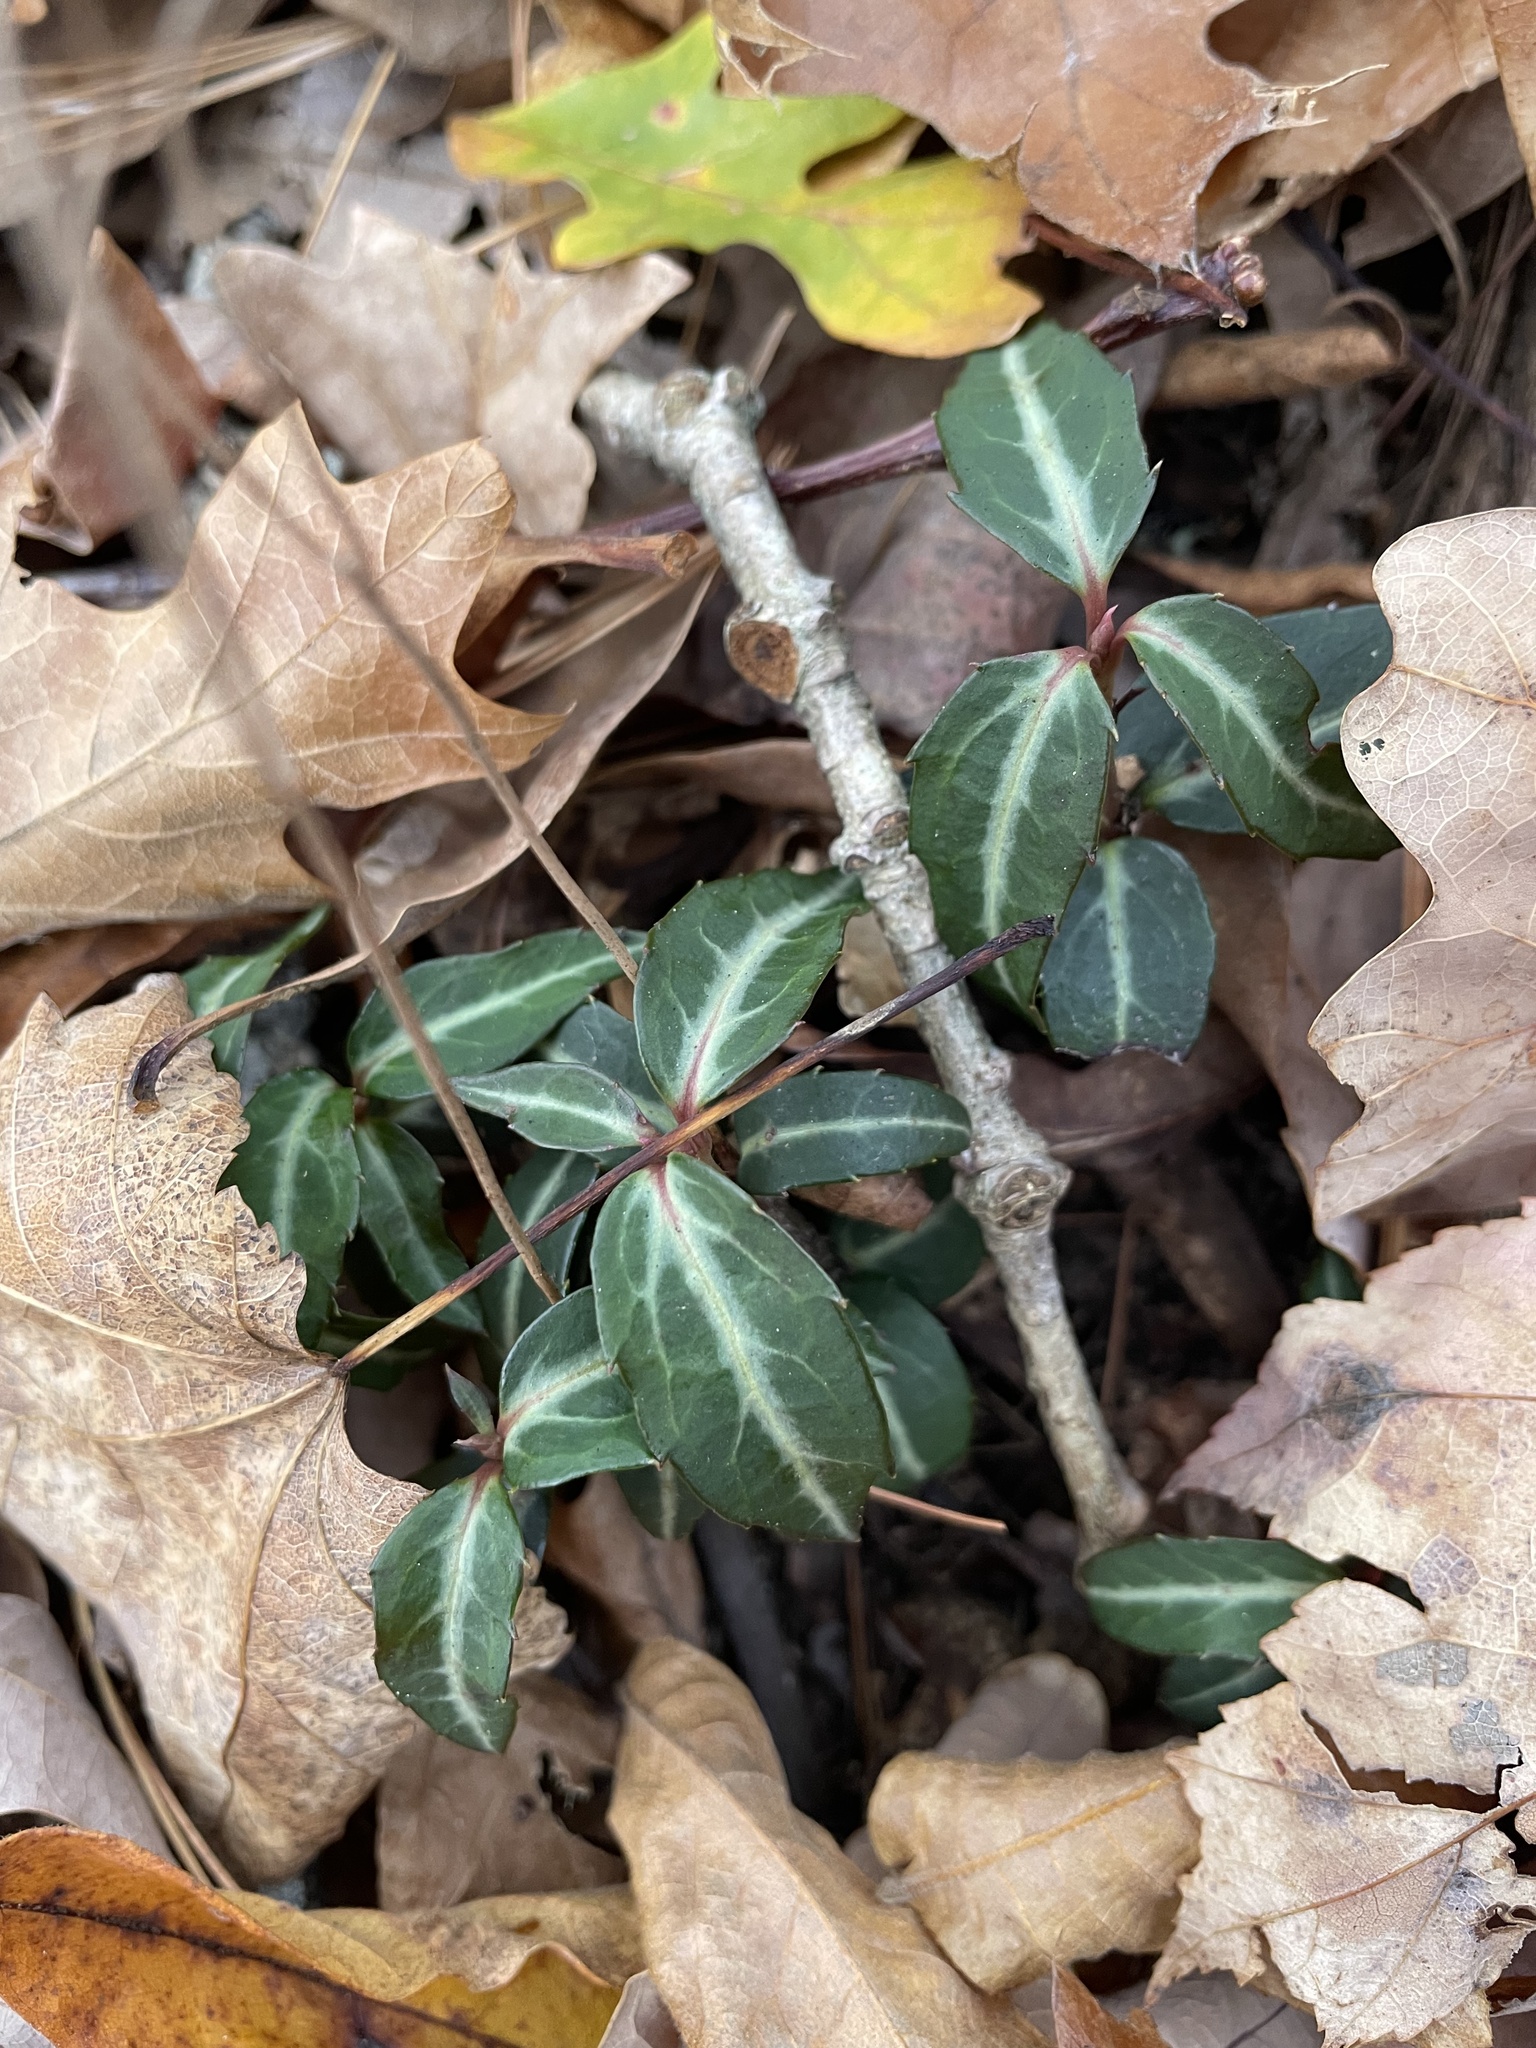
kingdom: Plantae
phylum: Tracheophyta
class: Magnoliopsida
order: Ericales
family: Ericaceae
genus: Chimaphila
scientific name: Chimaphila maculata
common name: Spotted pipsissewa
